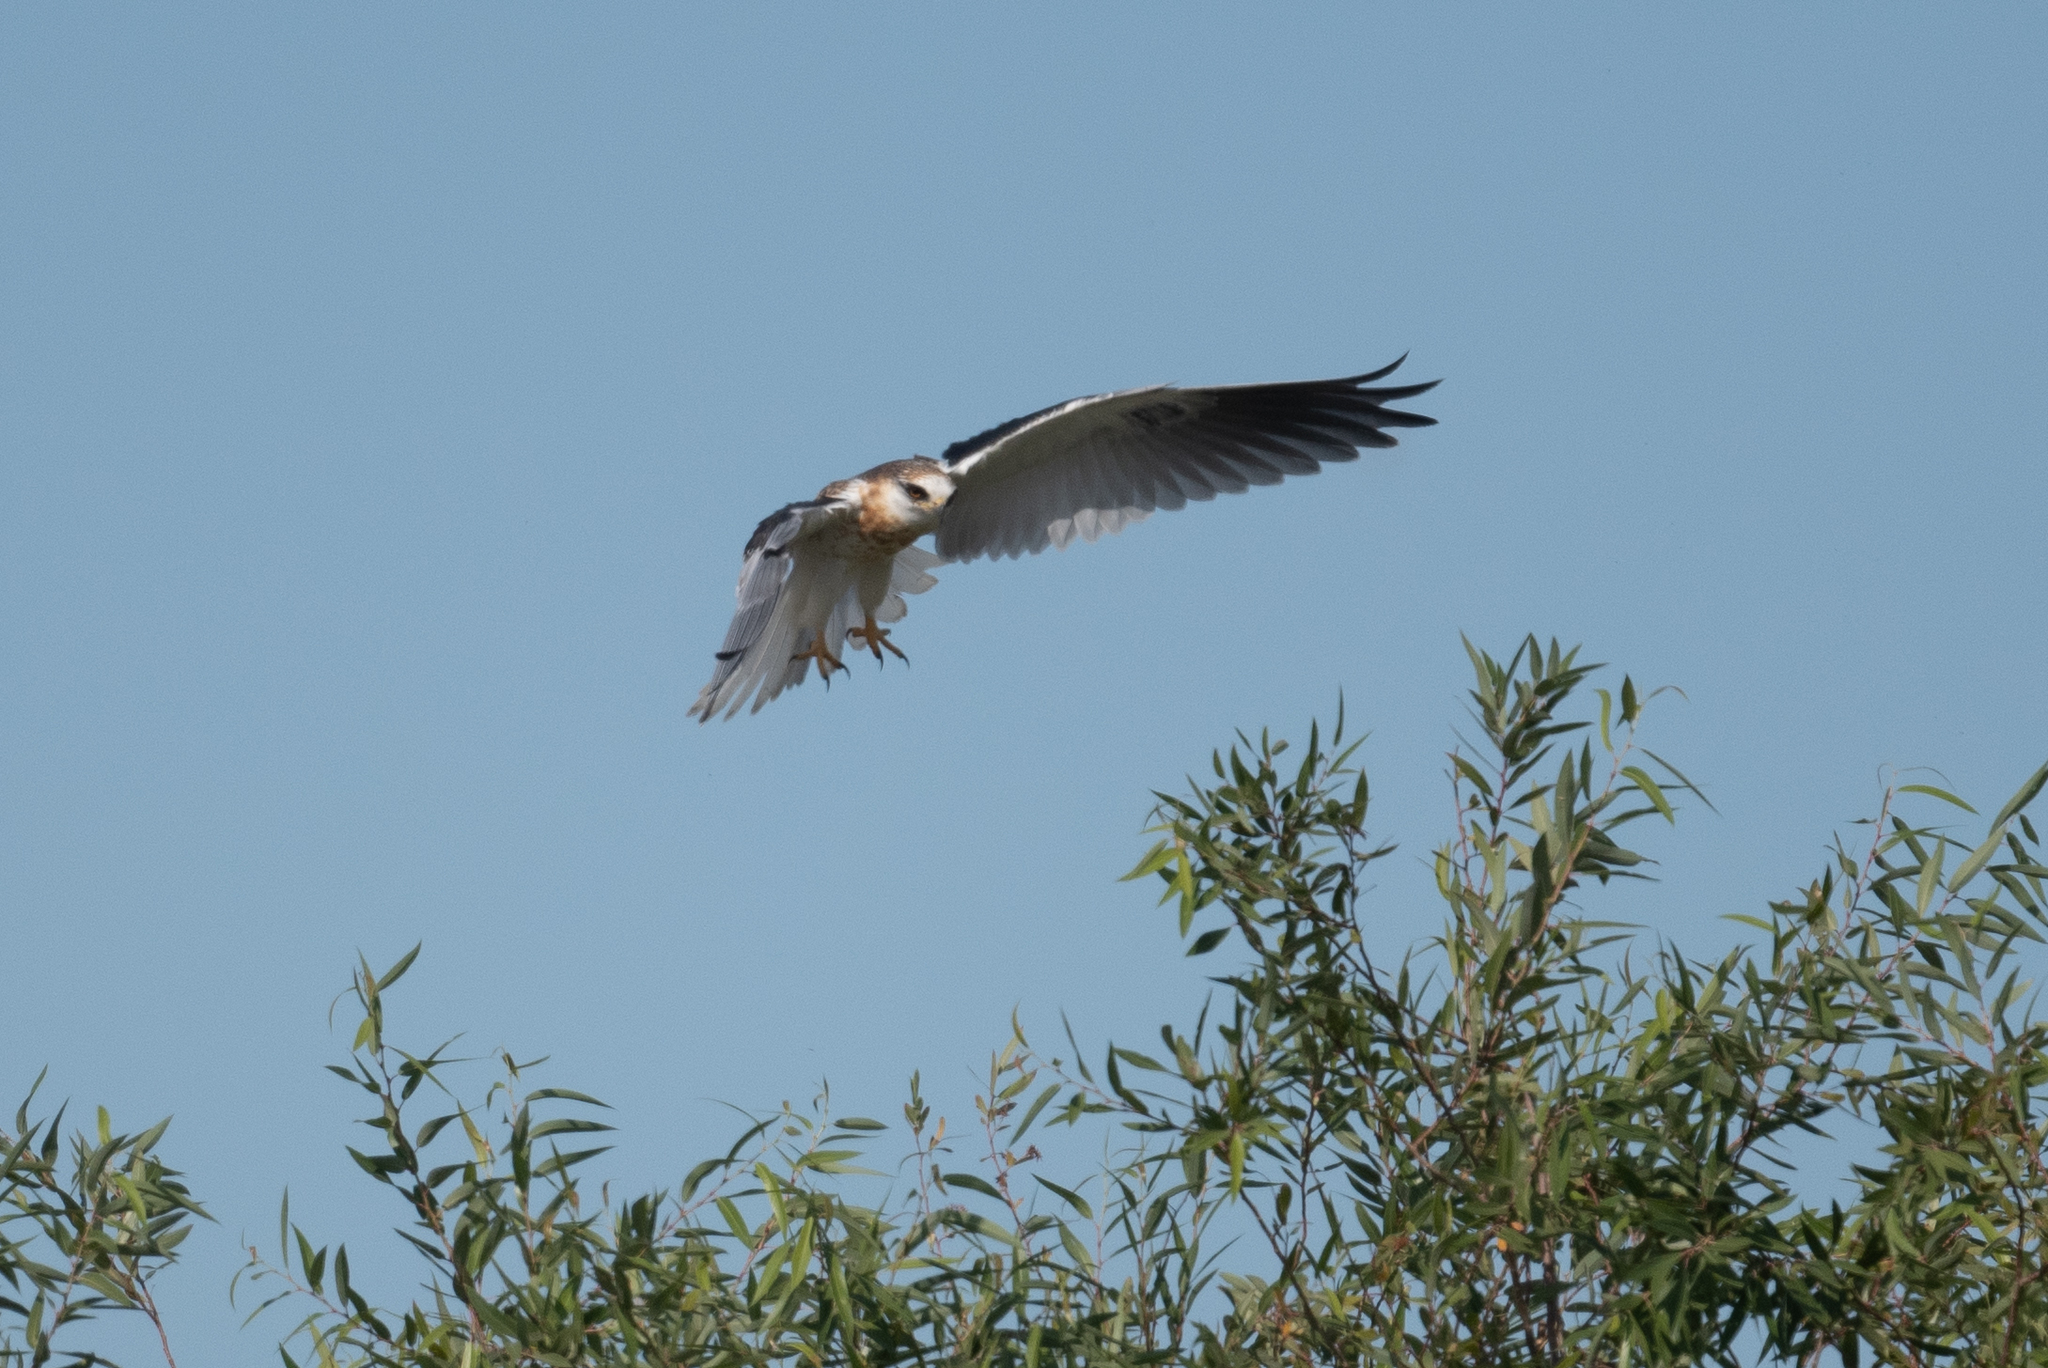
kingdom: Animalia
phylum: Chordata
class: Aves
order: Accipitriformes
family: Accipitridae
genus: Elanus
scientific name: Elanus leucurus
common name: White-tailed kite
